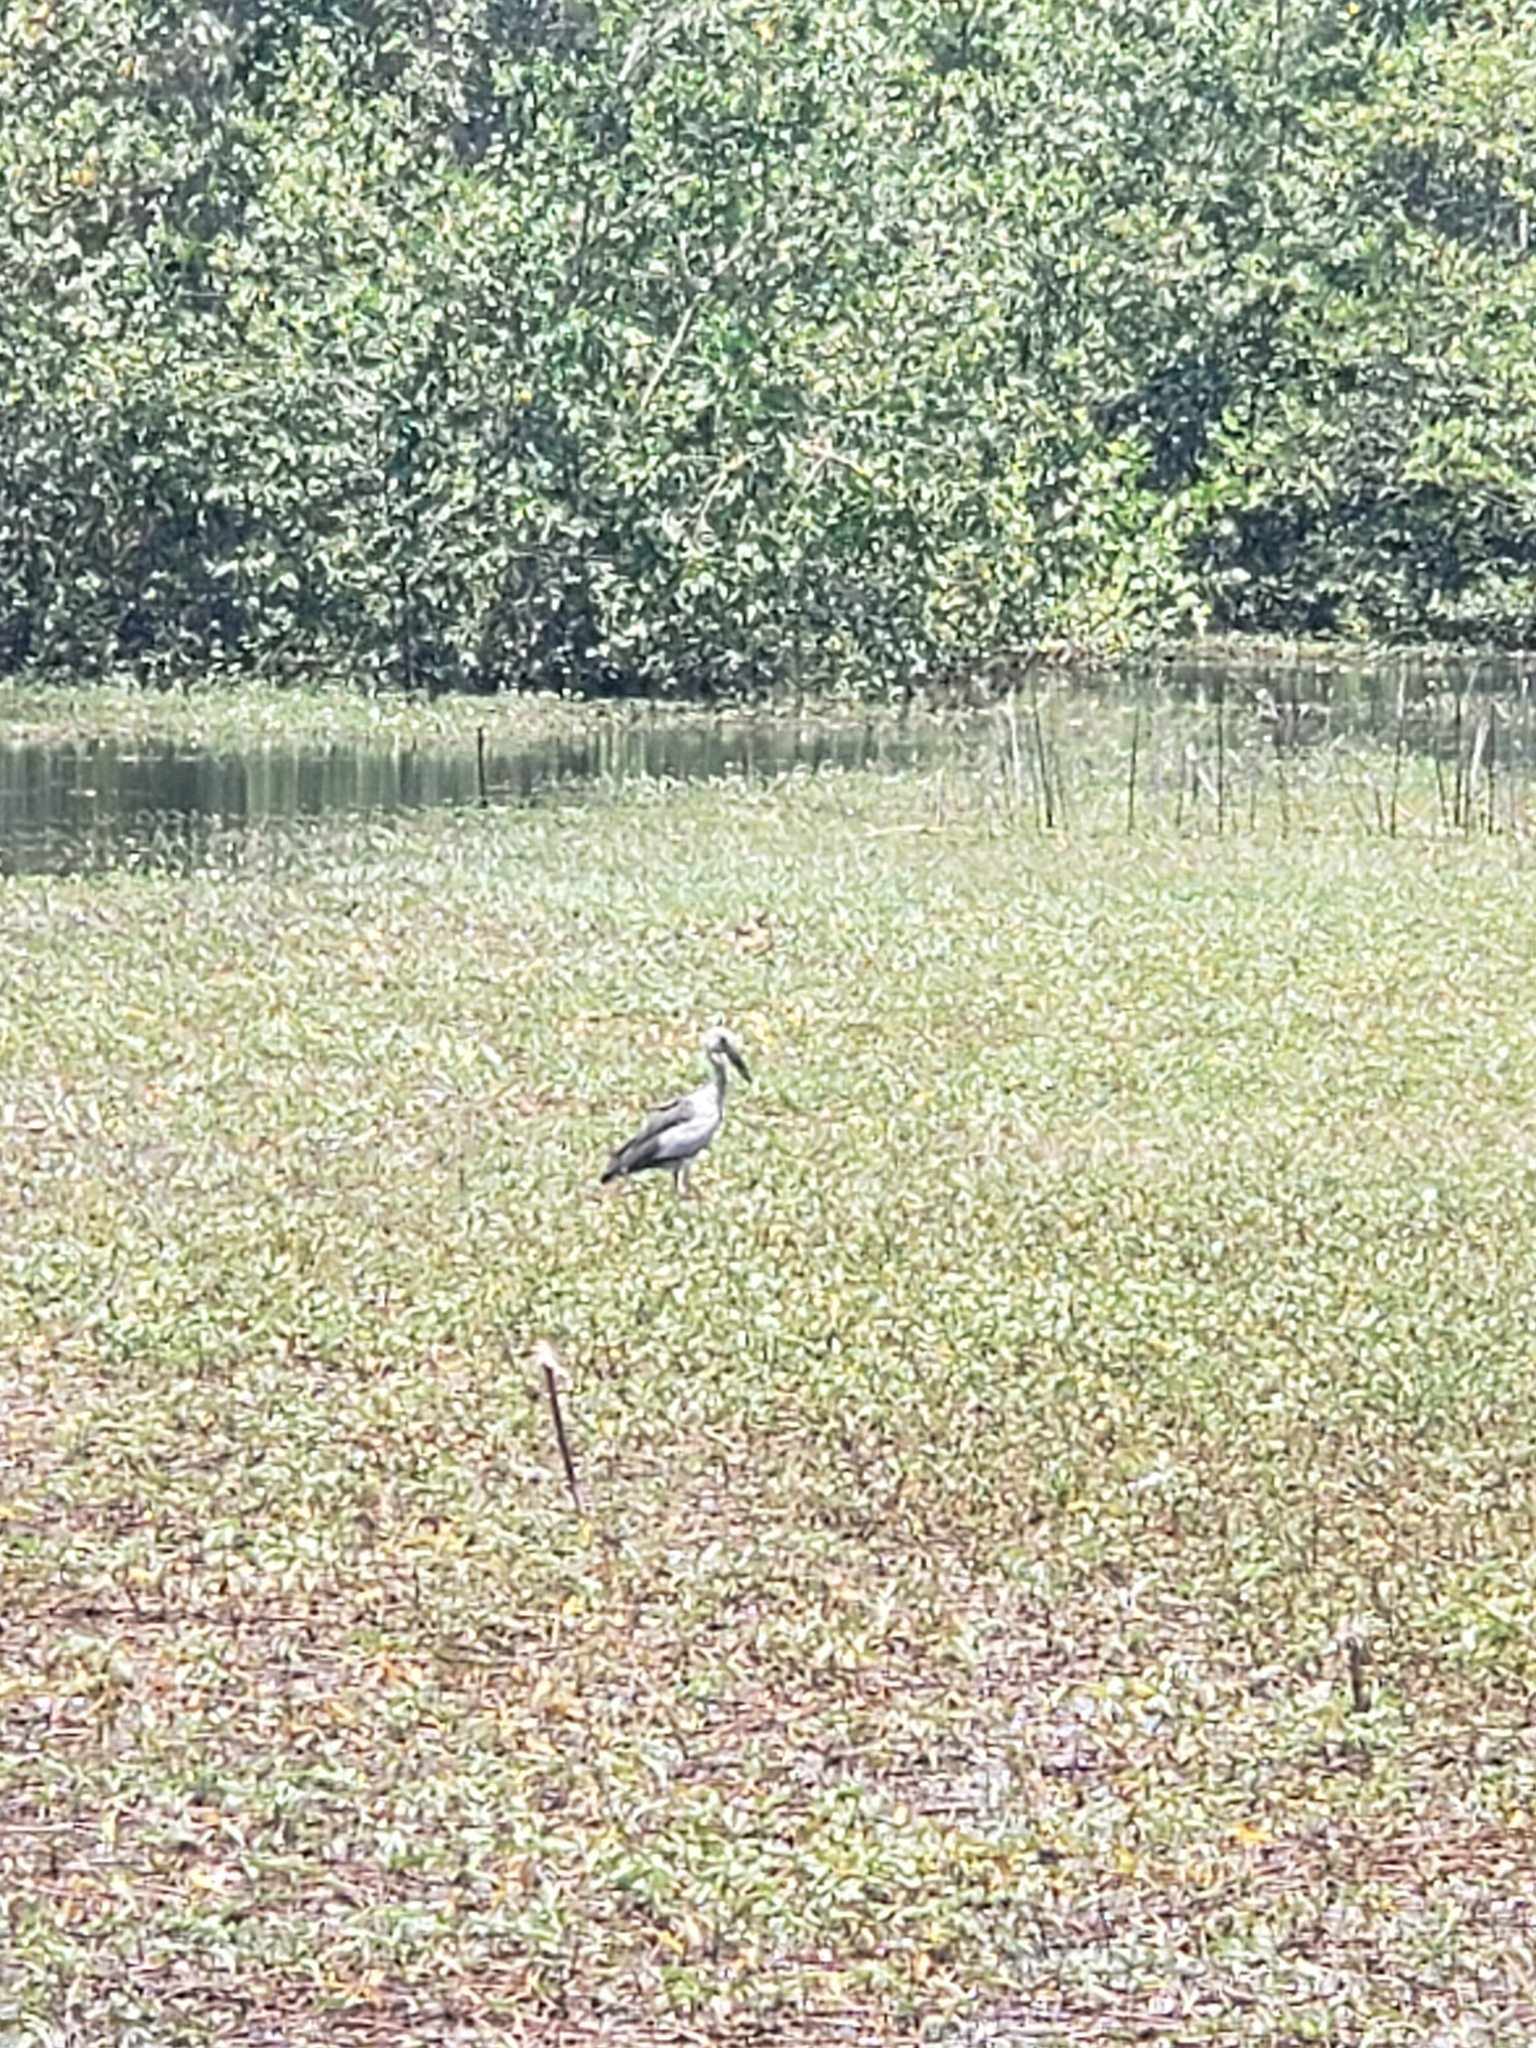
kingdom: Animalia
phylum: Chordata
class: Aves
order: Ciconiiformes
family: Ciconiidae
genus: Anastomus
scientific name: Anastomus oscitans
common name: Asian openbill
